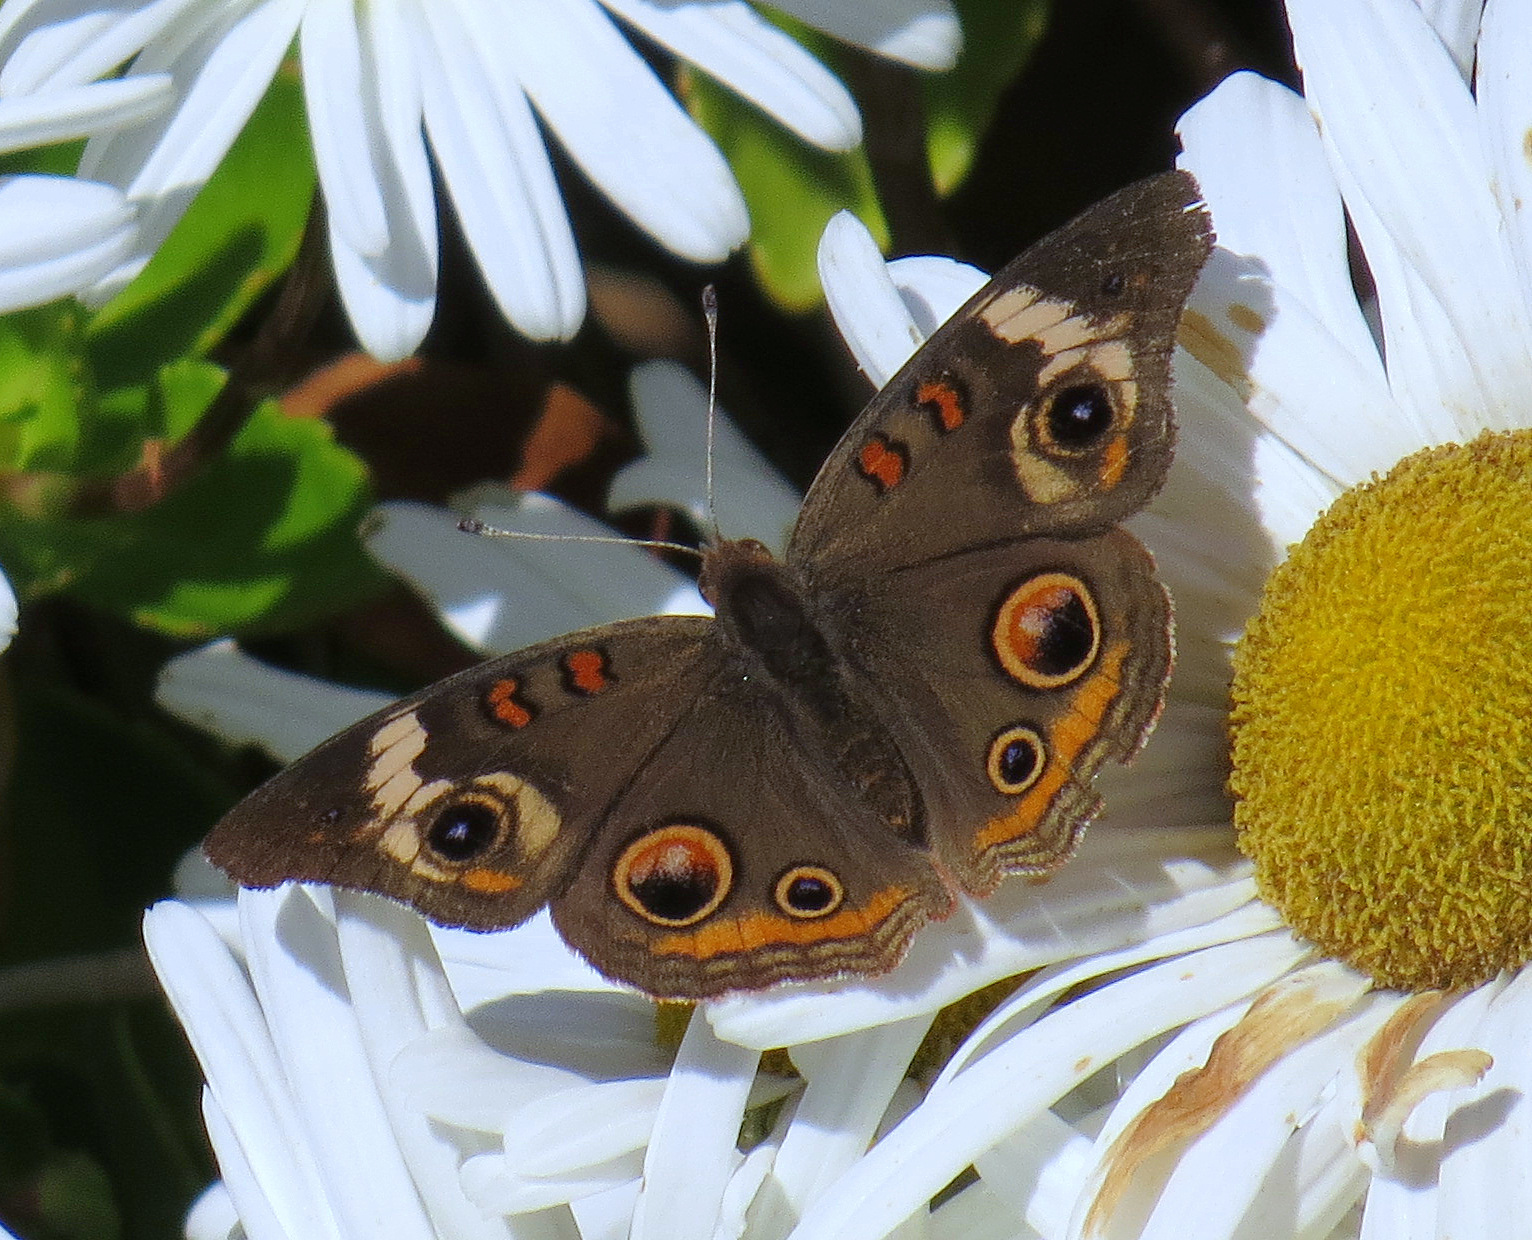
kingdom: Animalia
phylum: Arthropoda
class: Insecta
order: Lepidoptera
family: Nymphalidae
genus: Junonia
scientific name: Junonia coenia
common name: Common buckeye
